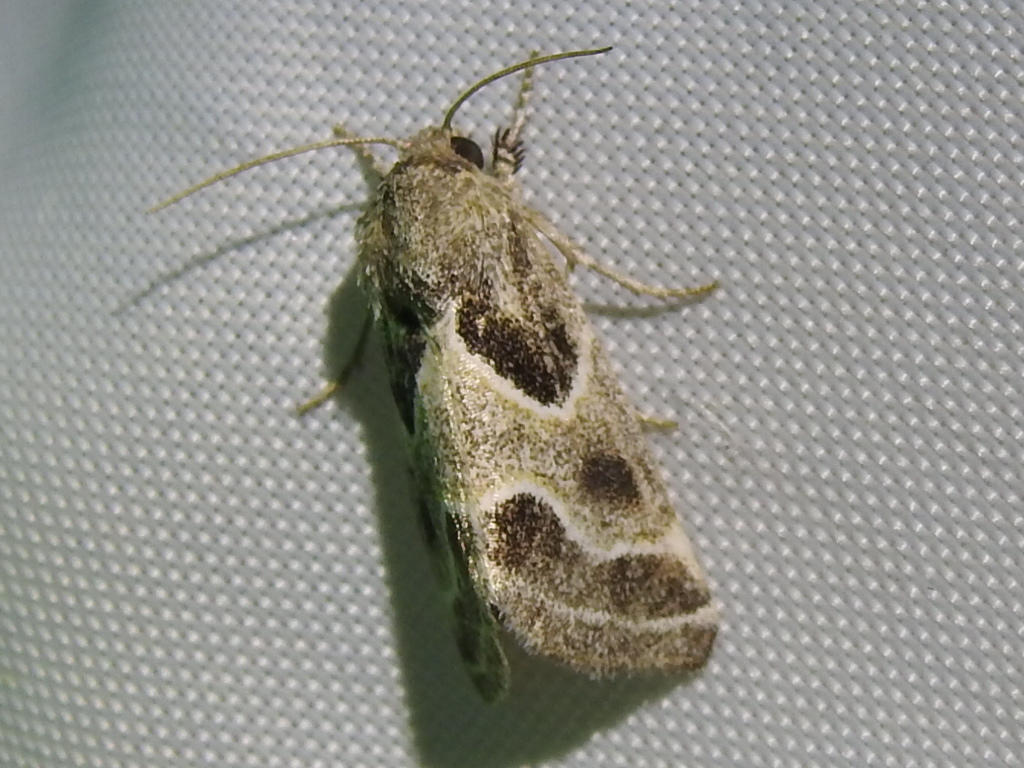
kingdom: Animalia
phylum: Arthropoda
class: Insecta
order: Lepidoptera
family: Noctuidae
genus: Schinia
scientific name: Schinia rivulosa
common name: Scarce meal-moth
